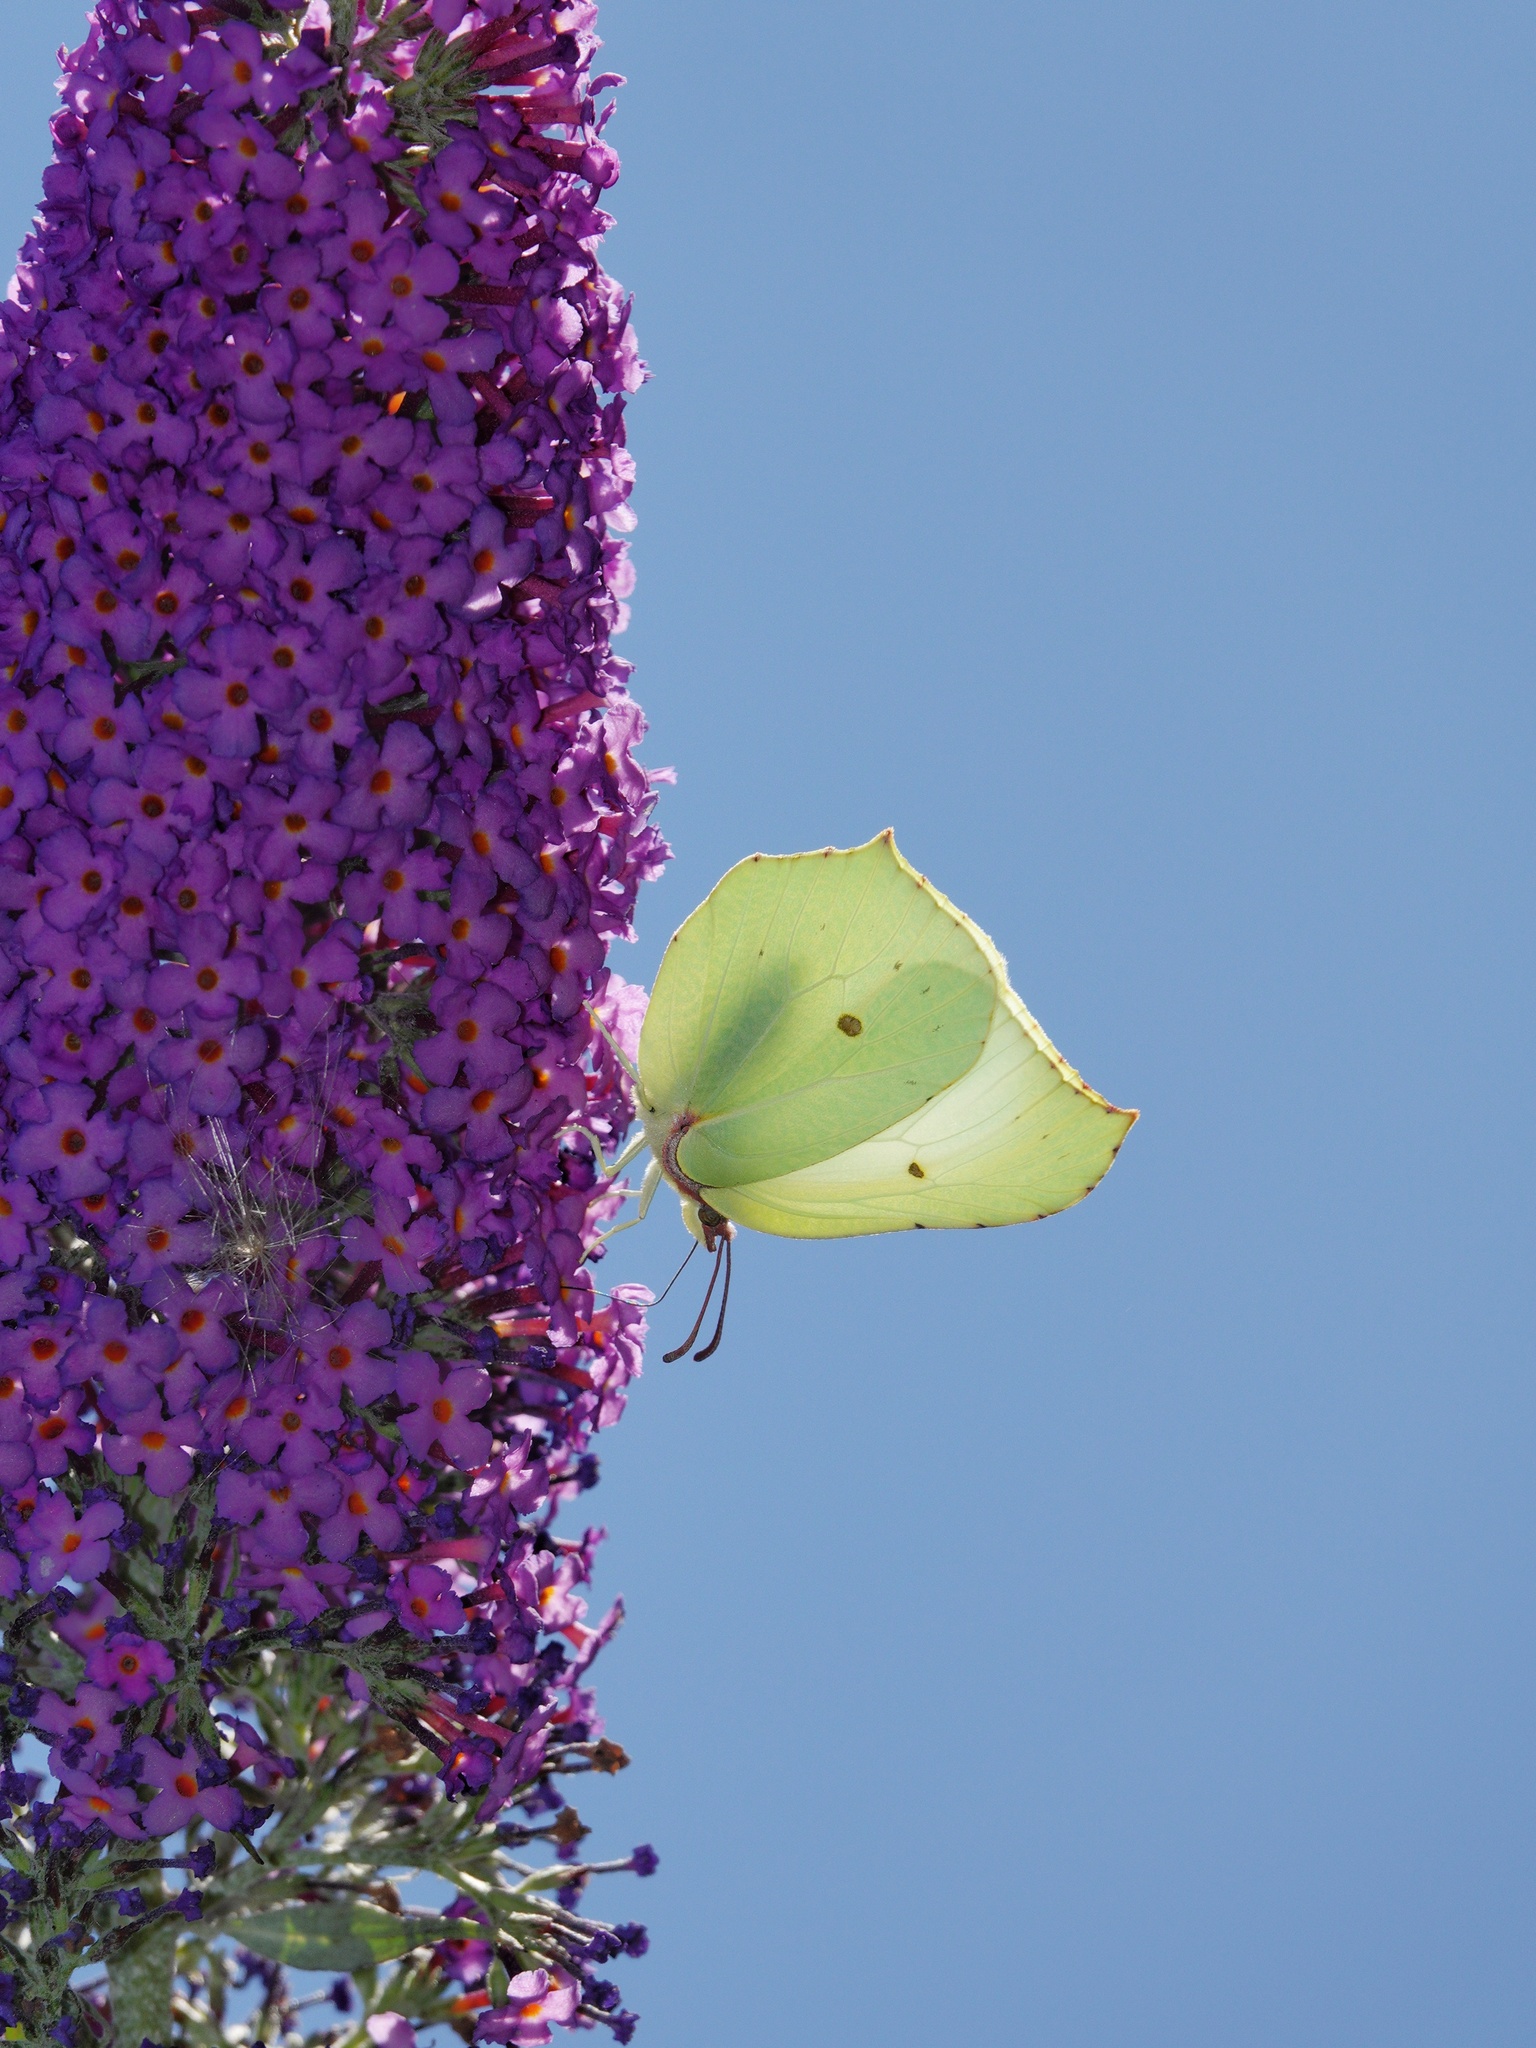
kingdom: Animalia
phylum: Arthropoda
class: Insecta
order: Lepidoptera
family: Pieridae
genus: Gonepteryx
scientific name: Gonepteryx rhamni
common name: Brimstone
